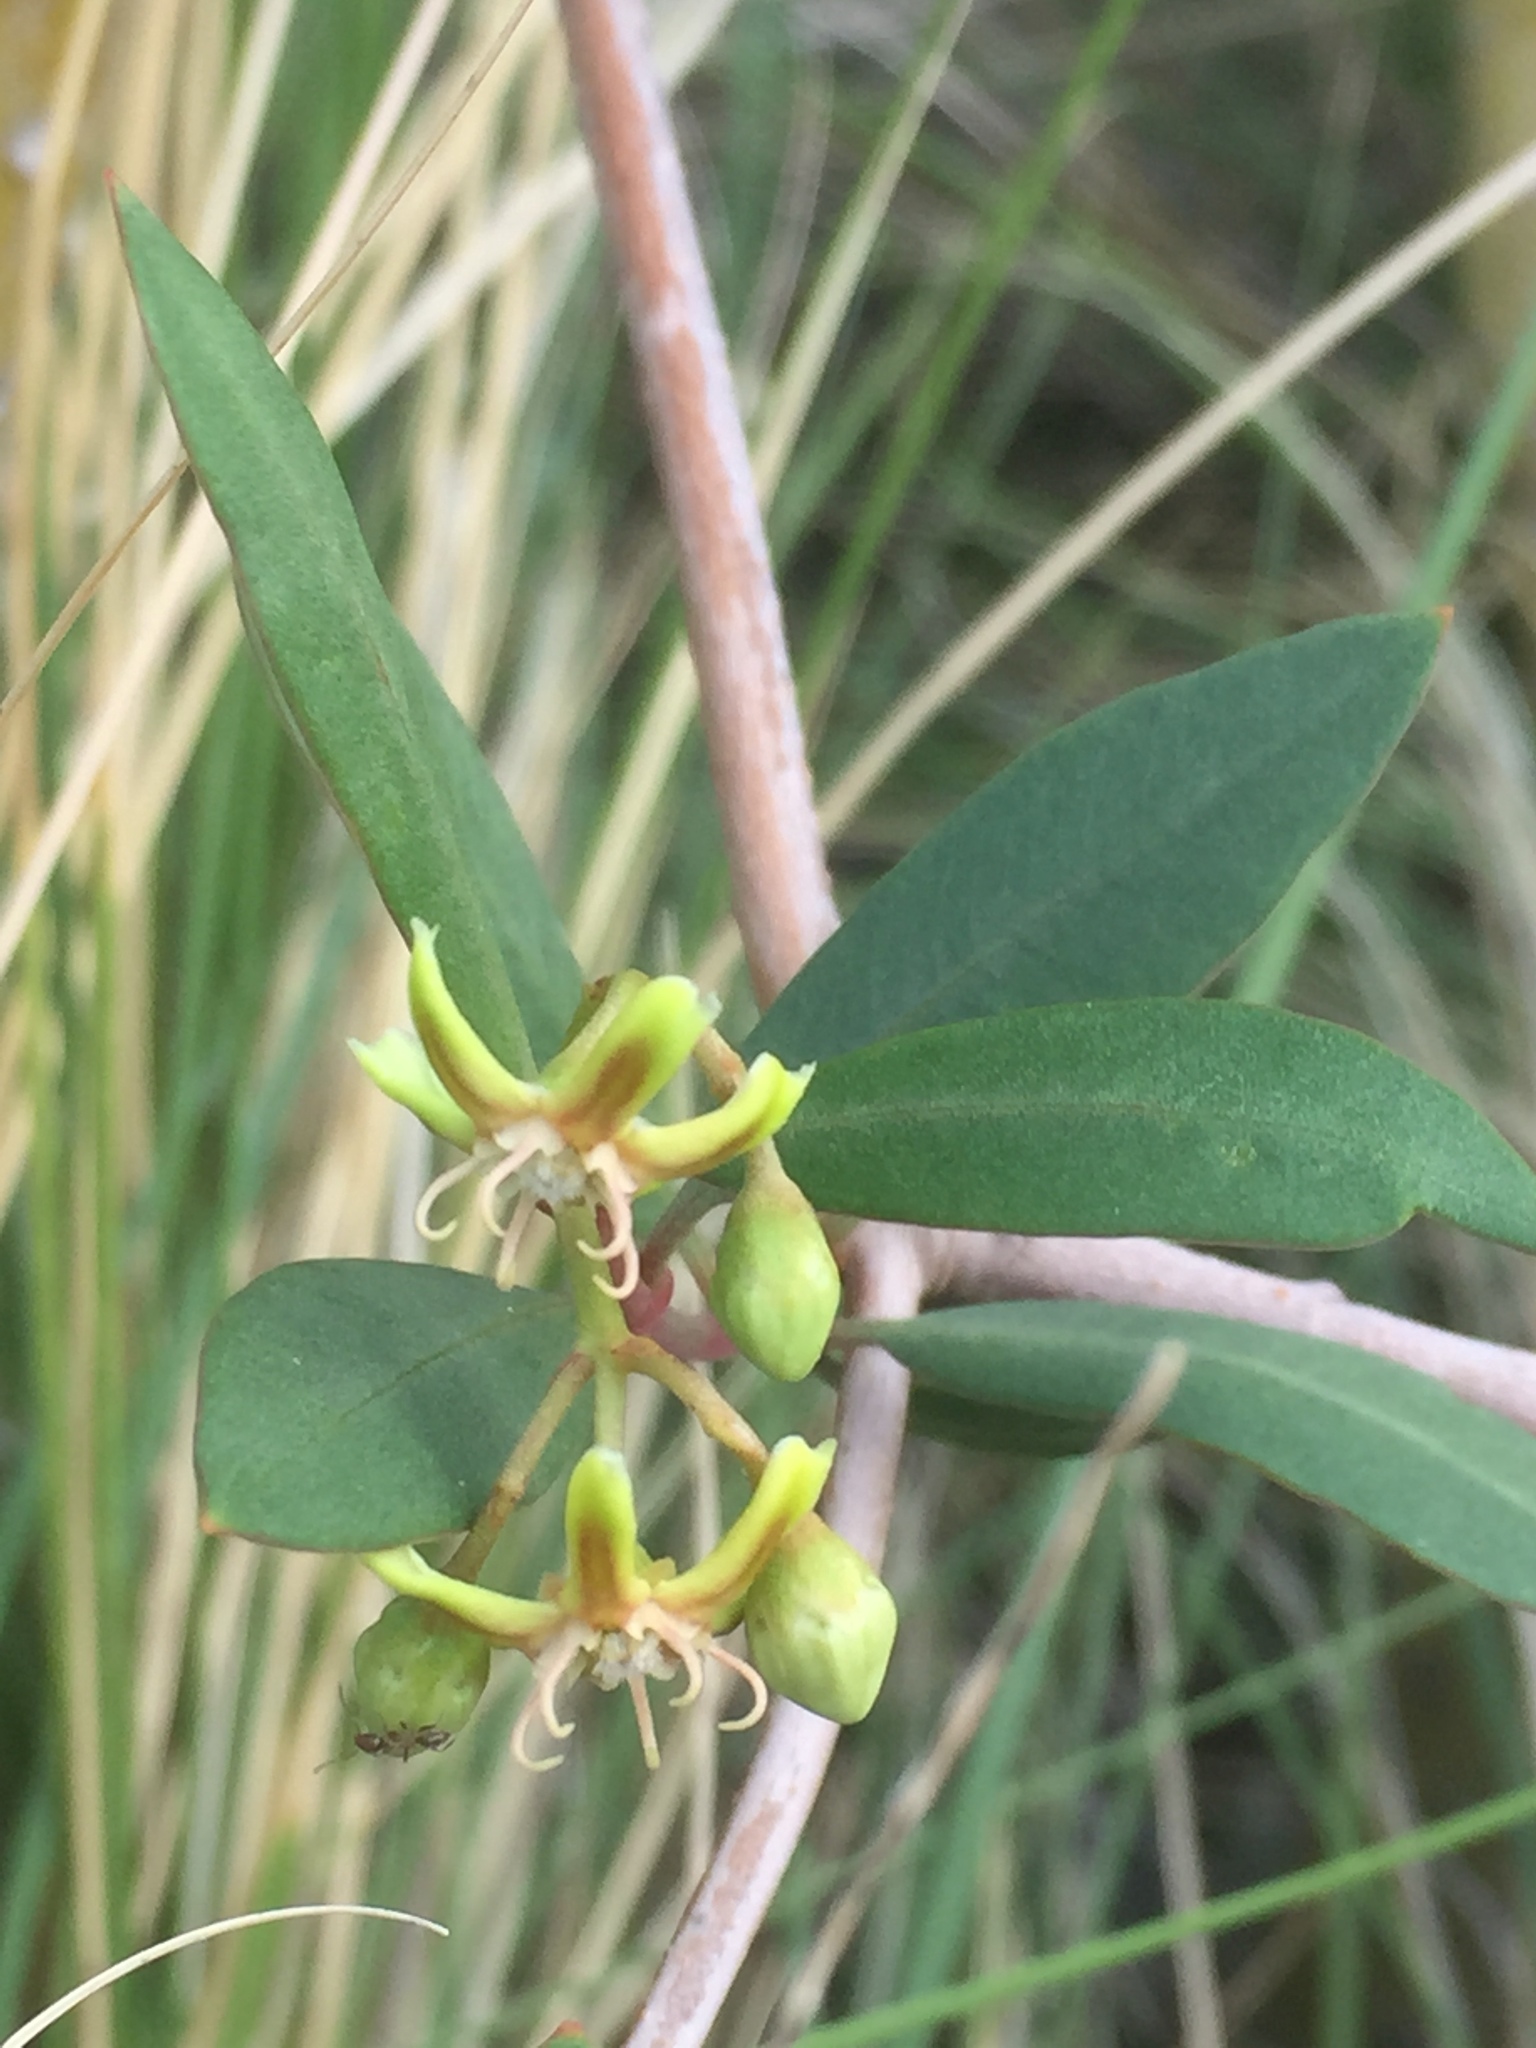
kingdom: Plantae
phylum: Tracheophyta
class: Magnoliopsida
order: Gentianales
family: Apocynaceae
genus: Periploca
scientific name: Periploca laevigata
